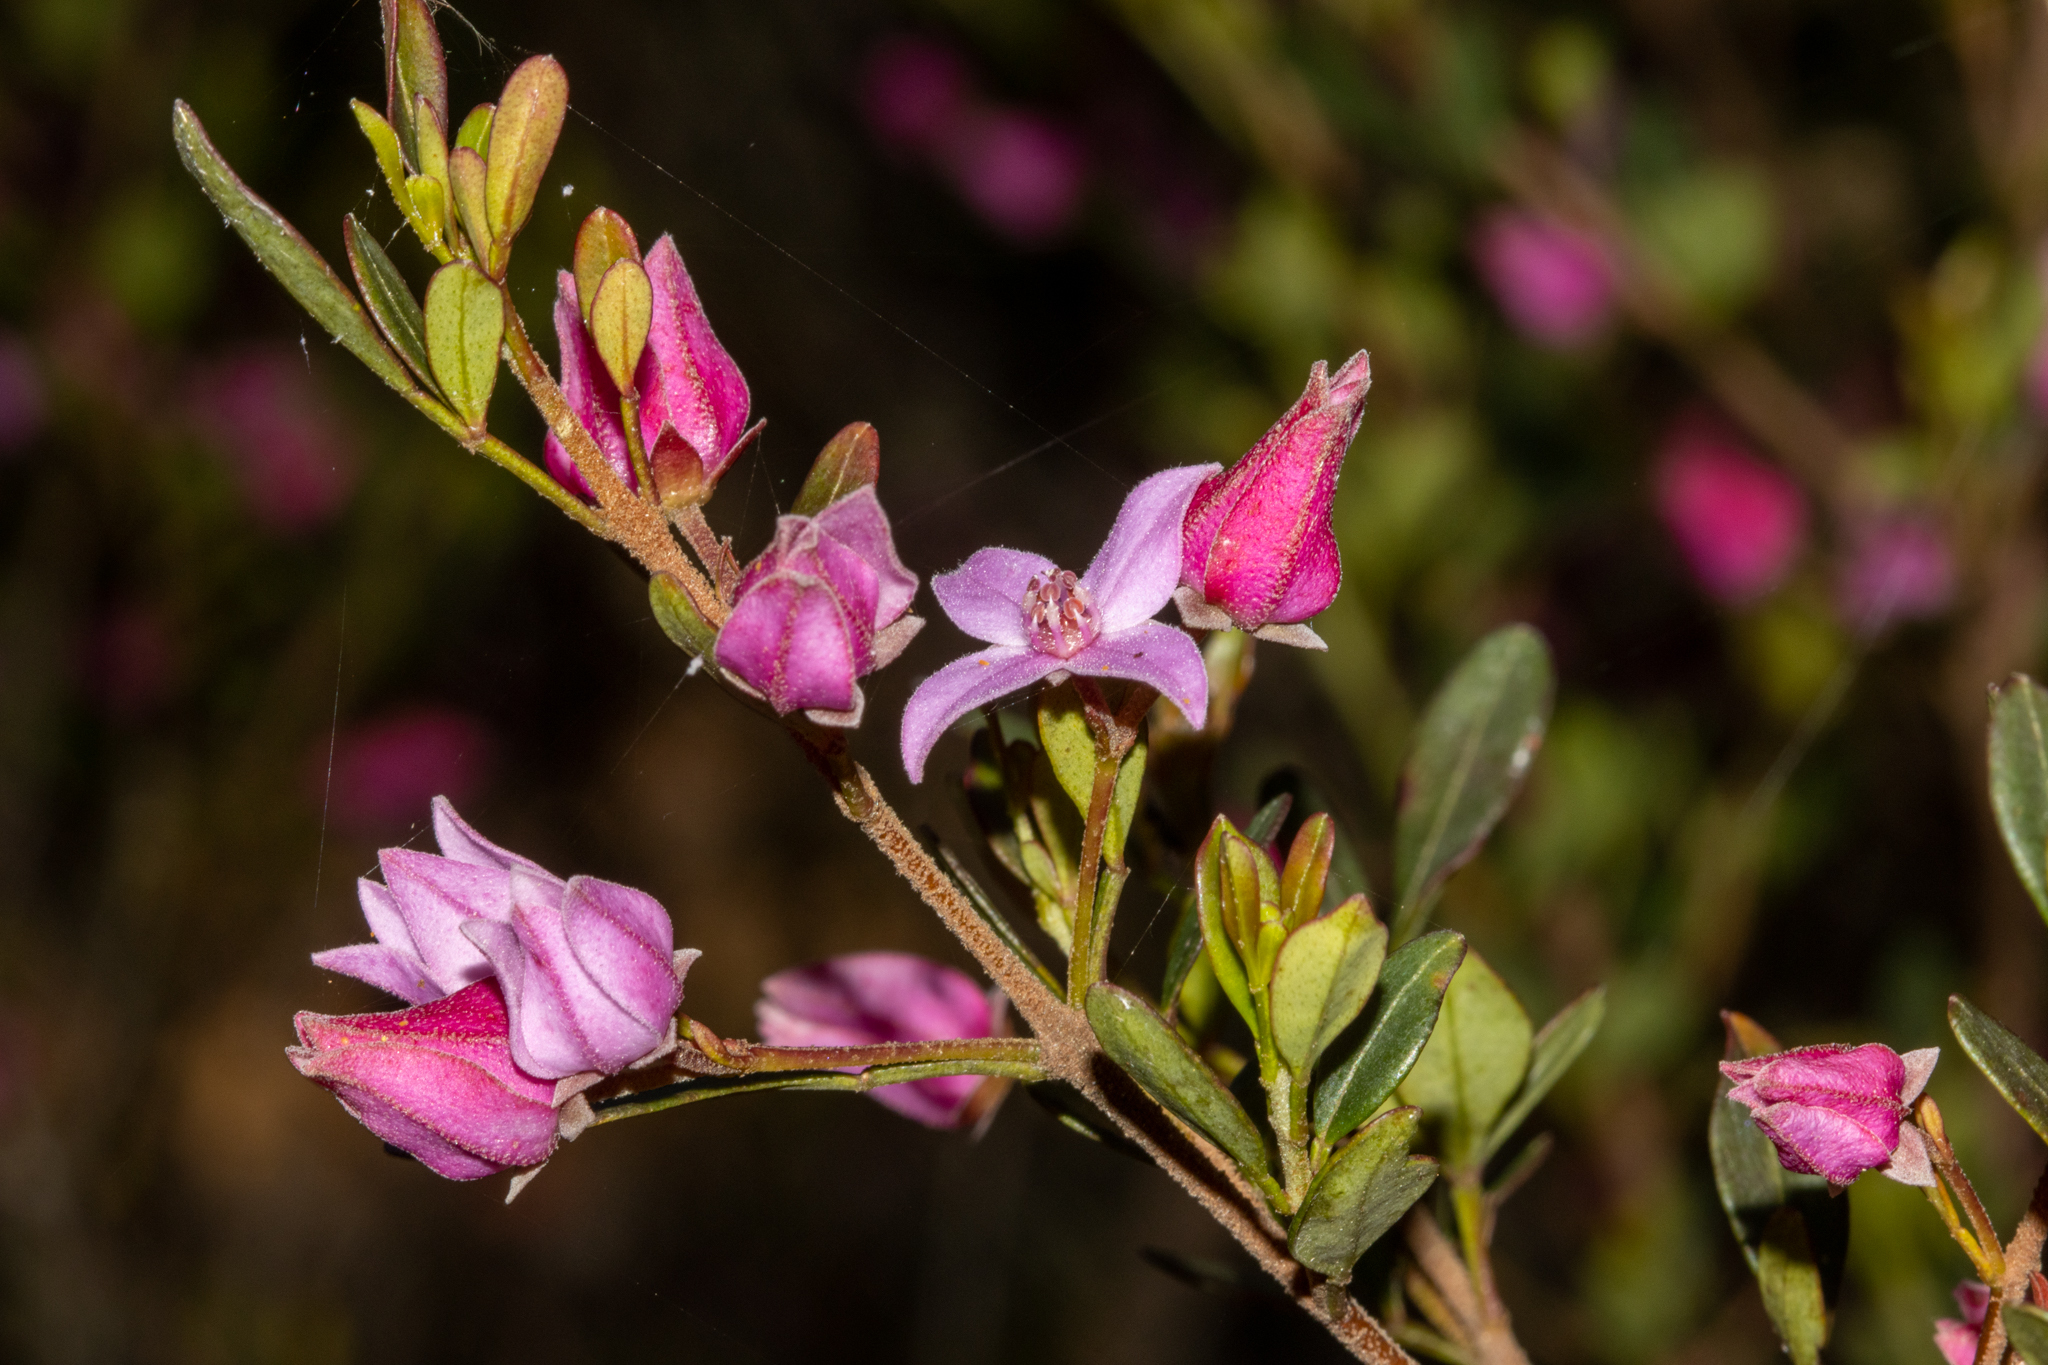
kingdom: Plantae
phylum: Tracheophyta
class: Magnoliopsida
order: Sapindales
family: Rutaceae
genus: Boronia
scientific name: Boronia rubiginosa
